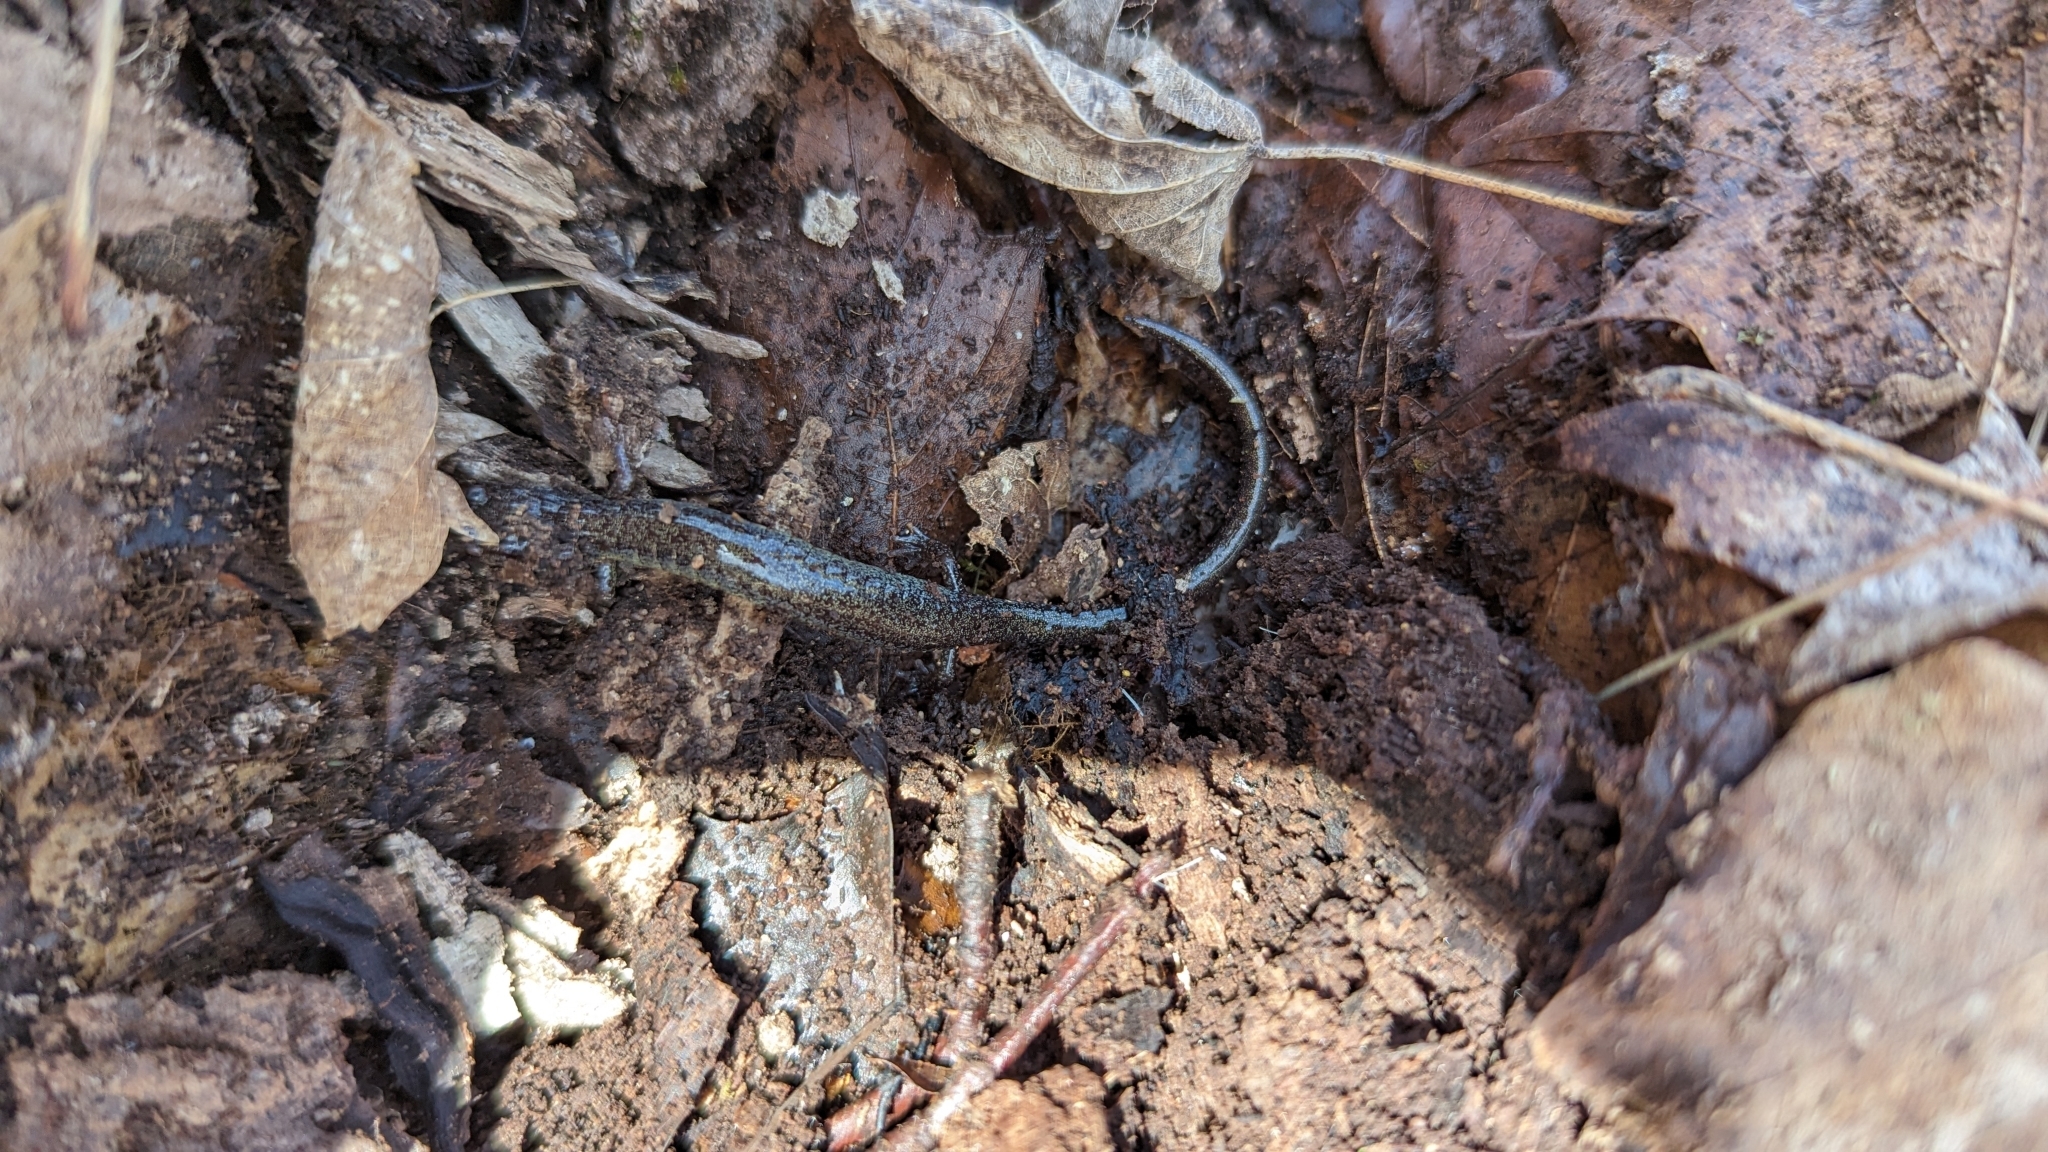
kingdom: Animalia
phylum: Chordata
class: Amphibia
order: Caudata
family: Plethodontidae
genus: Plethodon
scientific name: Plethodon cinereus
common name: Redback salamander
